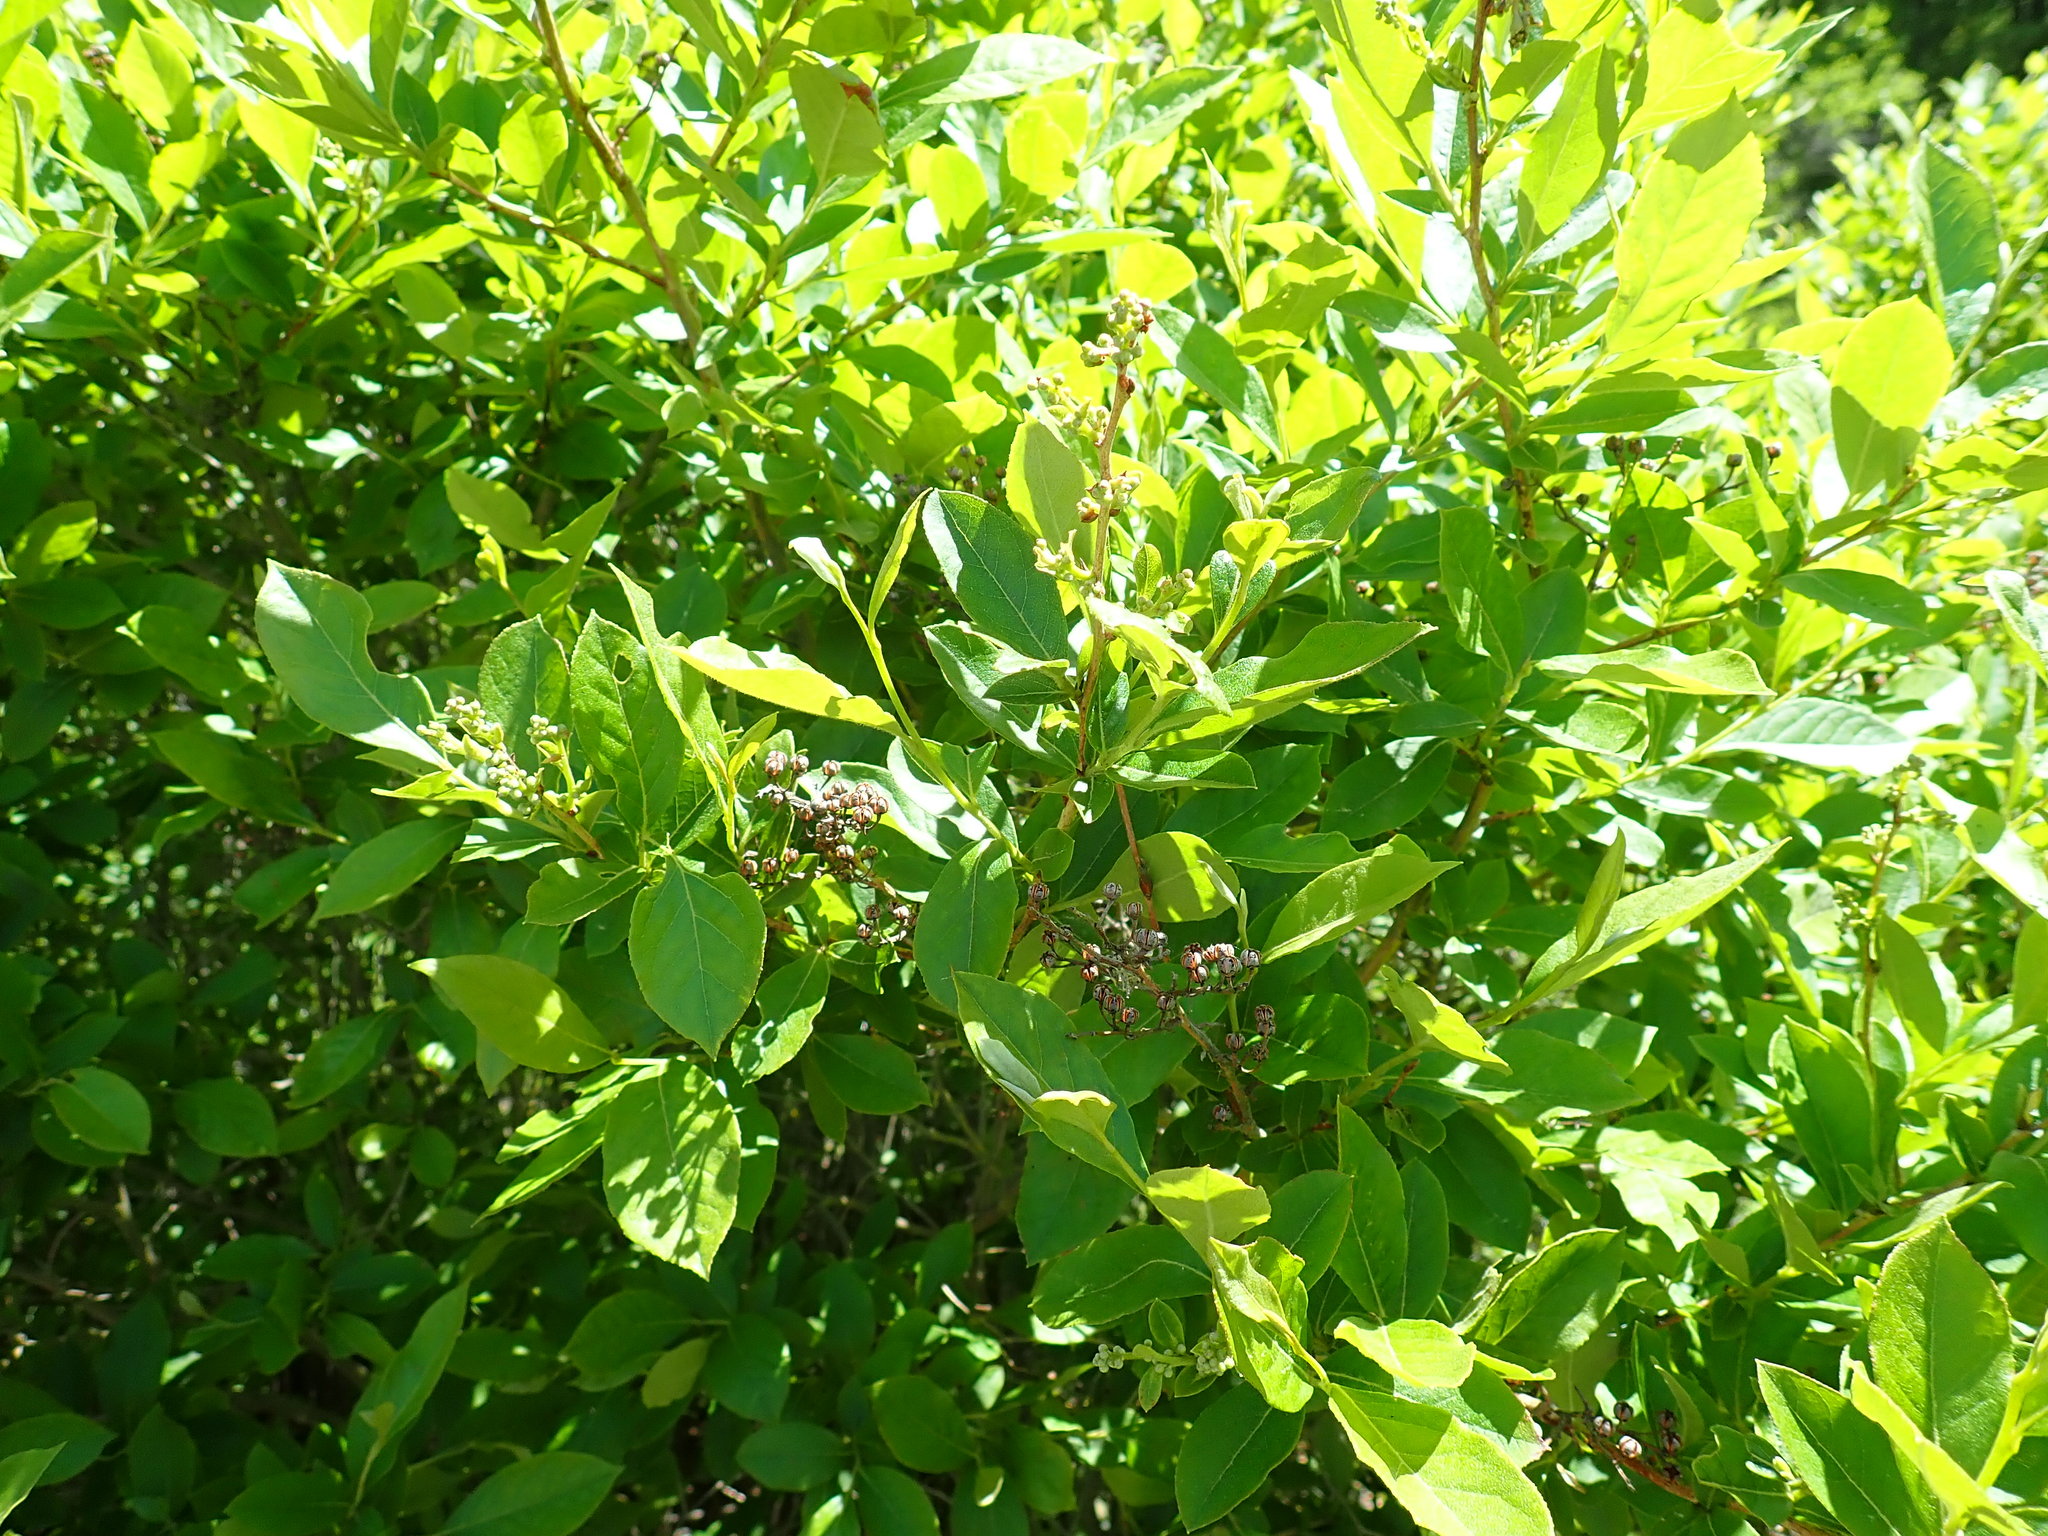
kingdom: Plantae
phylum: Tracheophyta
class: Magnoliopsida
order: Ericales
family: Ericaceae
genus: Lyonia
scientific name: Lyonia ligustrina
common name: Maleberry
